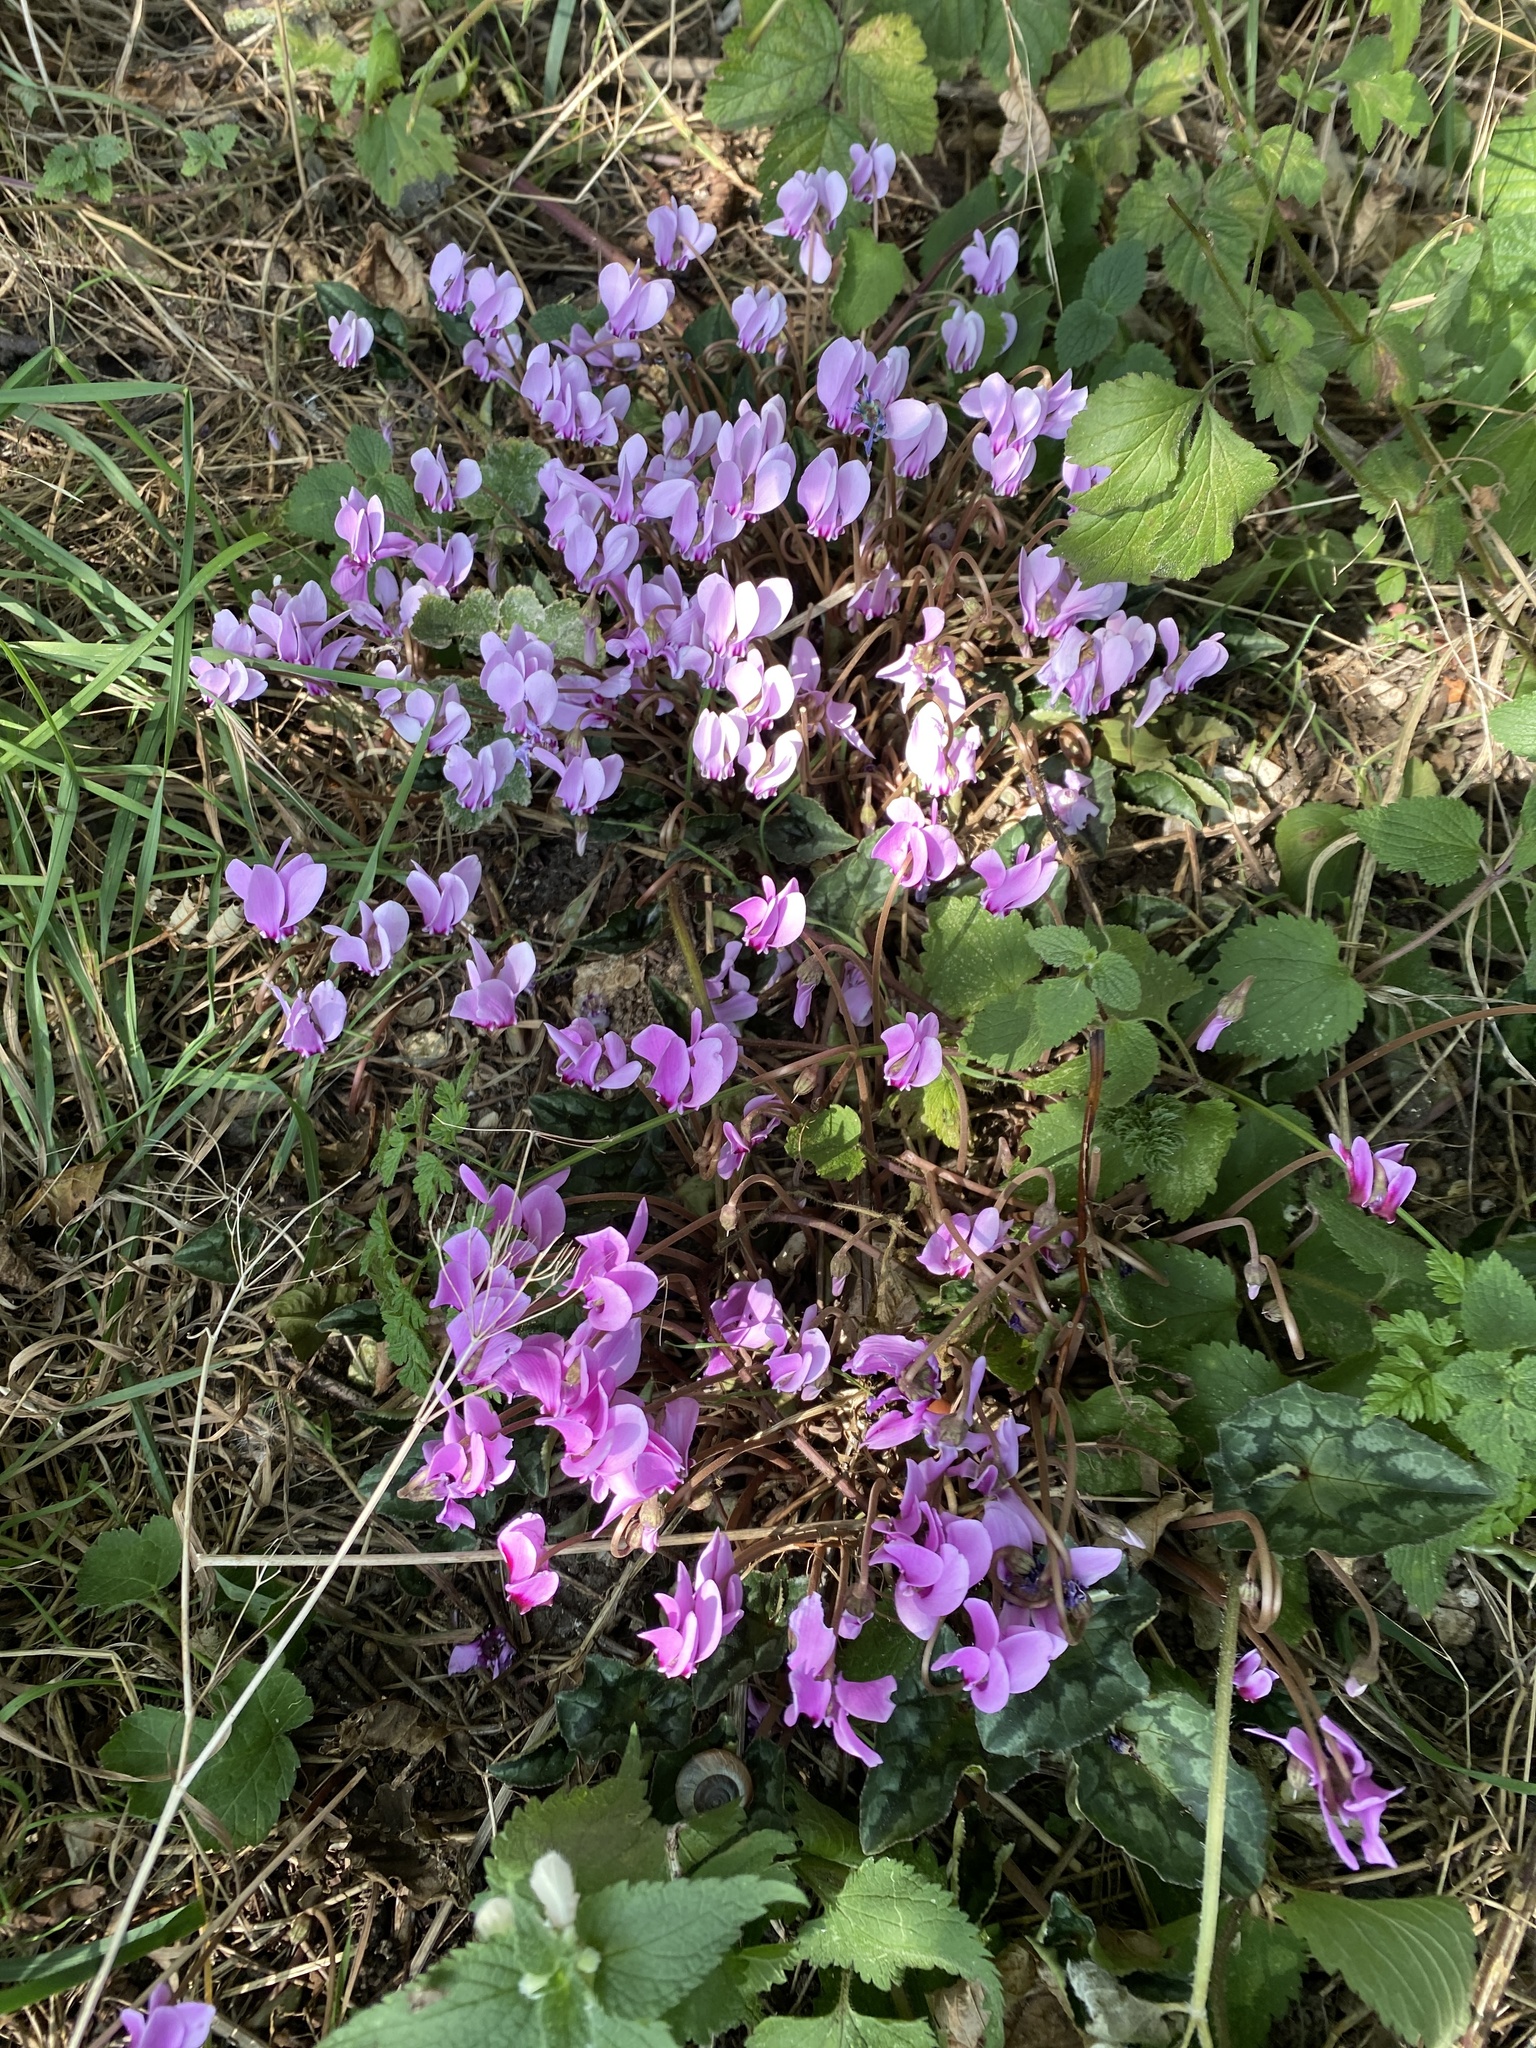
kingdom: Plantae
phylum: Tracheophyta
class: Magnoliopsida
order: Ericales
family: Primulaceae
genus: Cyclamen
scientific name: Cyclamen hederifolium
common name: Sowbread
